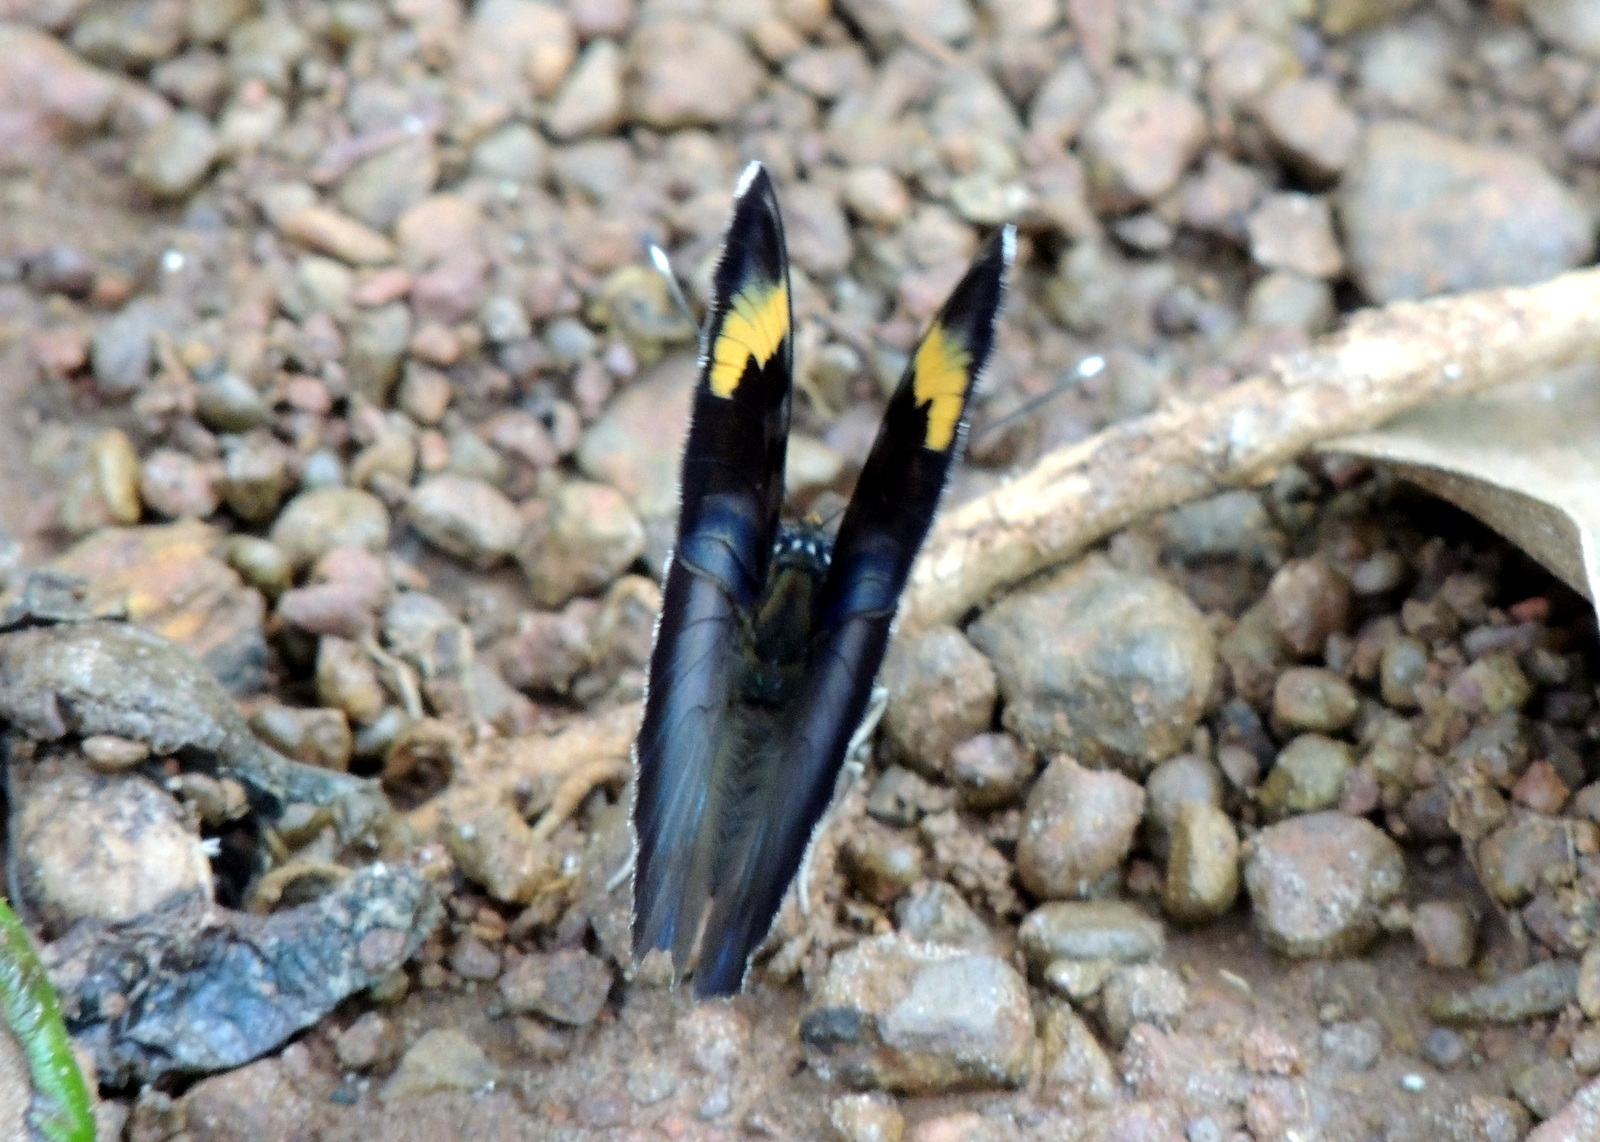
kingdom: Animalia
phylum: Arthropoda
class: Insecta
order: Lepidoptera
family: Nymphalidae
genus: Euphaedra
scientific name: Euphaedra medon
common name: Widespread forester
